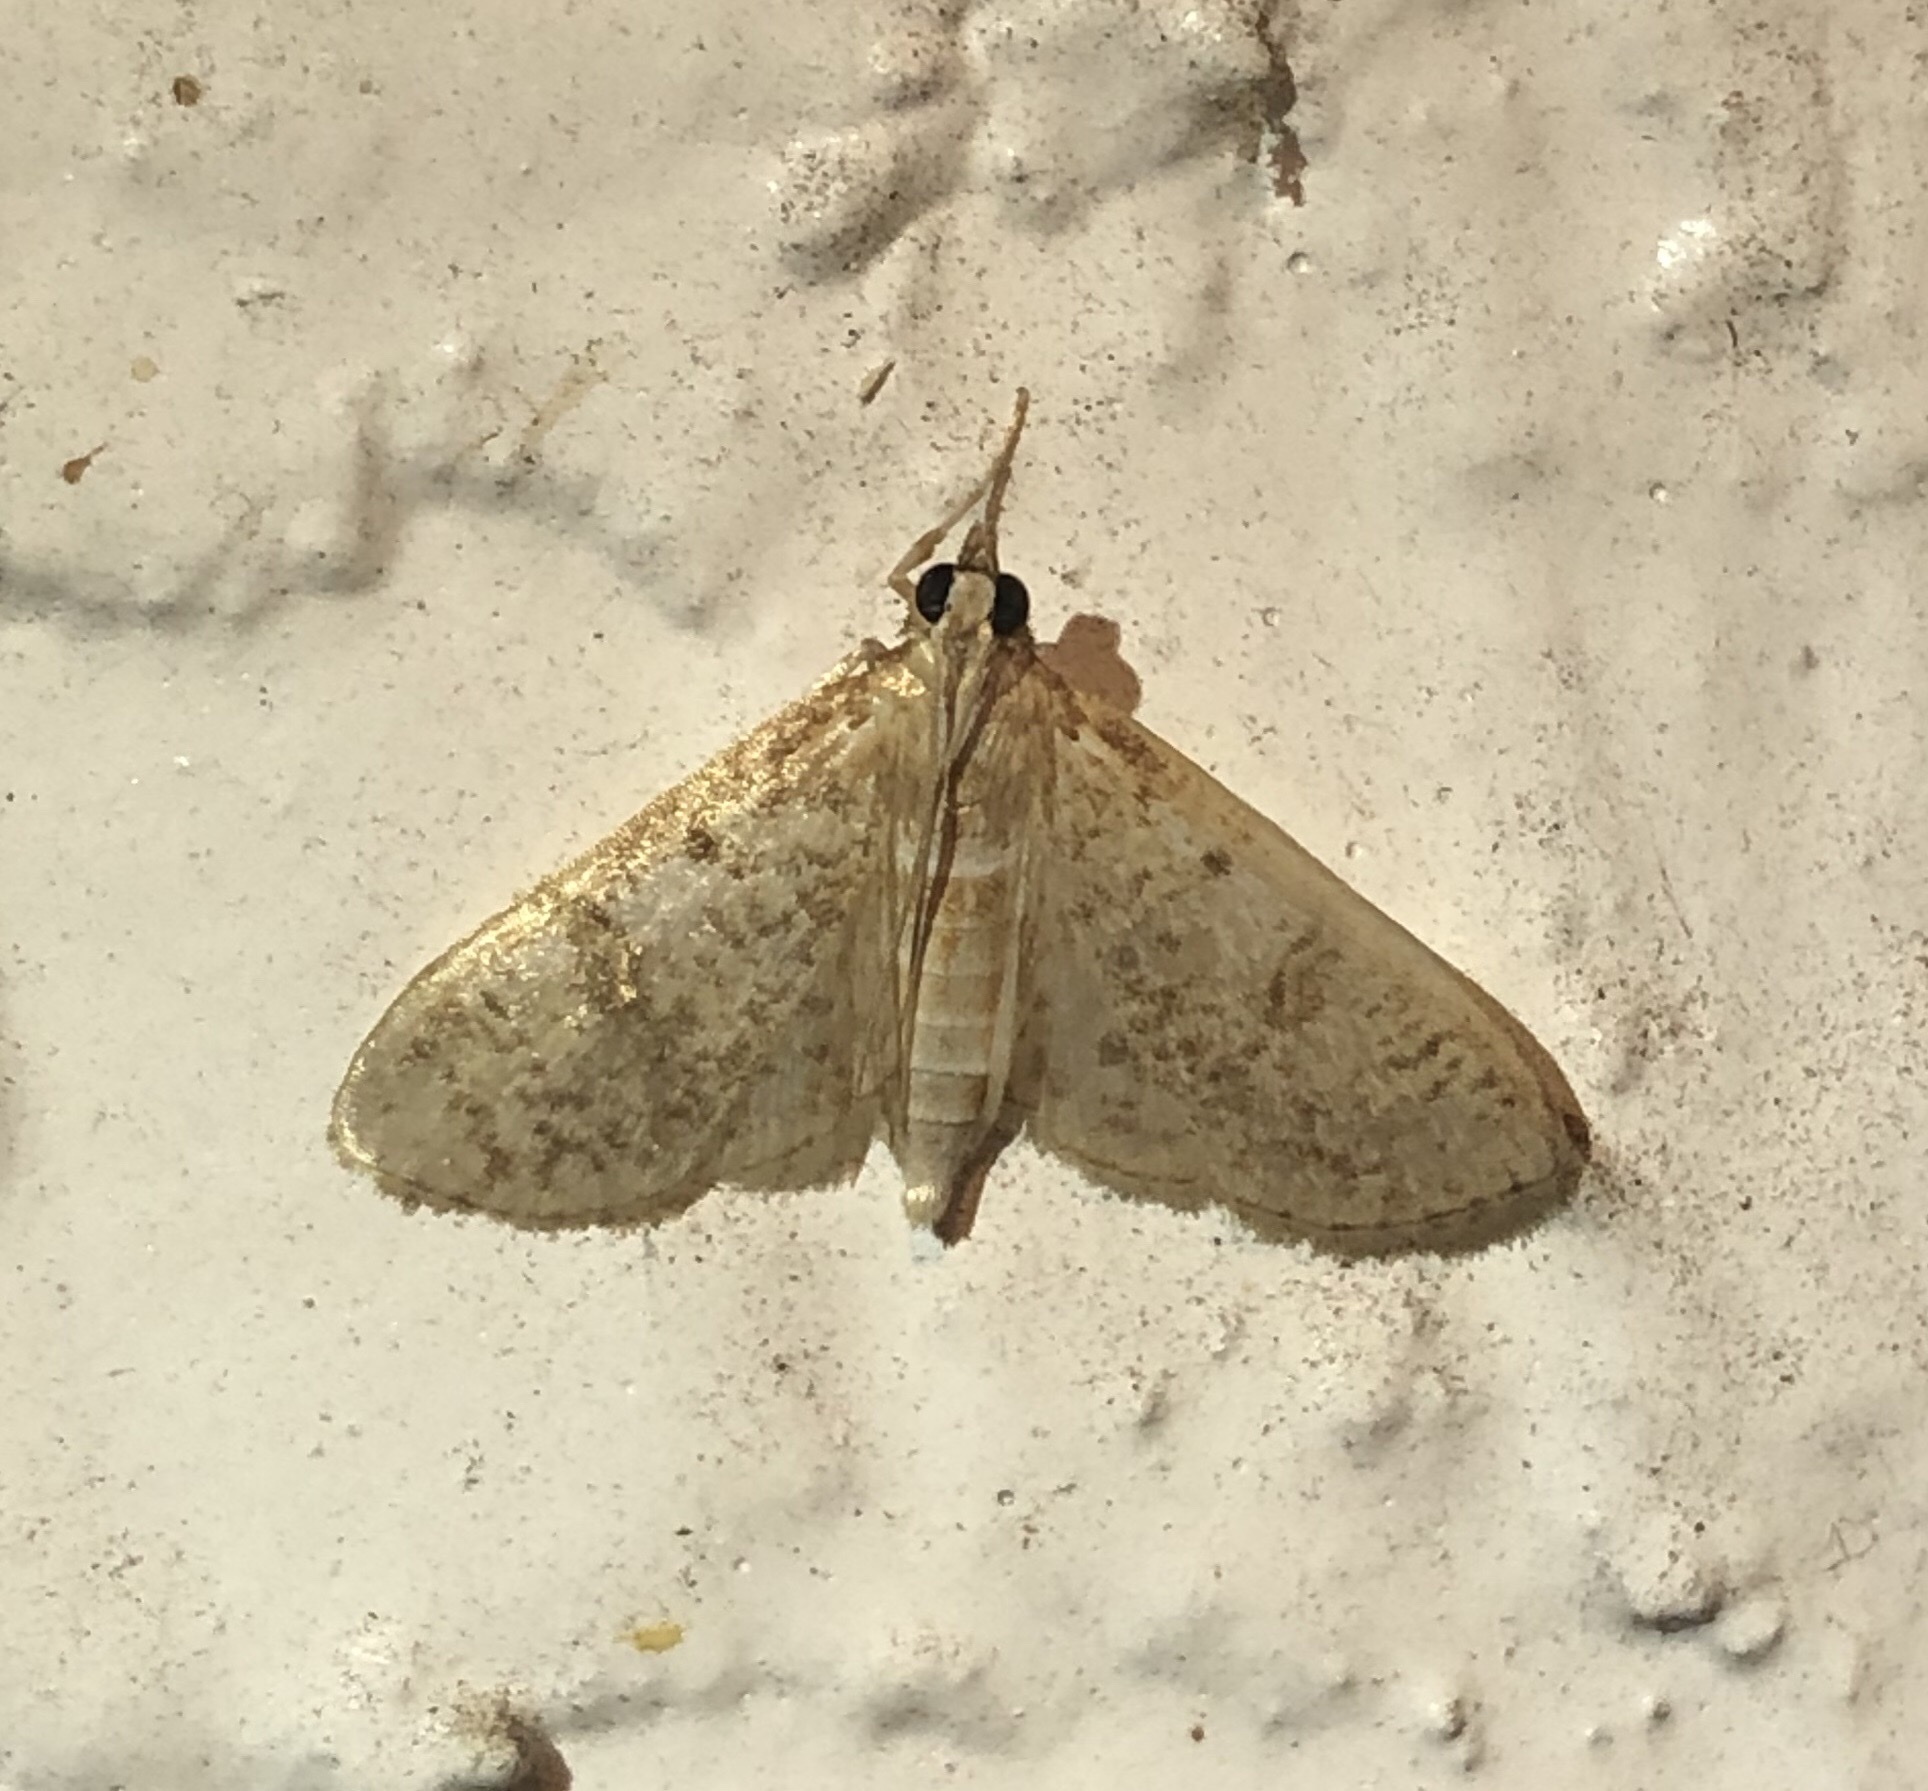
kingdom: Animalia
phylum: Arthropoda
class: Insecta
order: Lepidoptera
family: Crambidae
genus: Palpita
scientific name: Palpita magniferalis
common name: Splendid palpita moth
